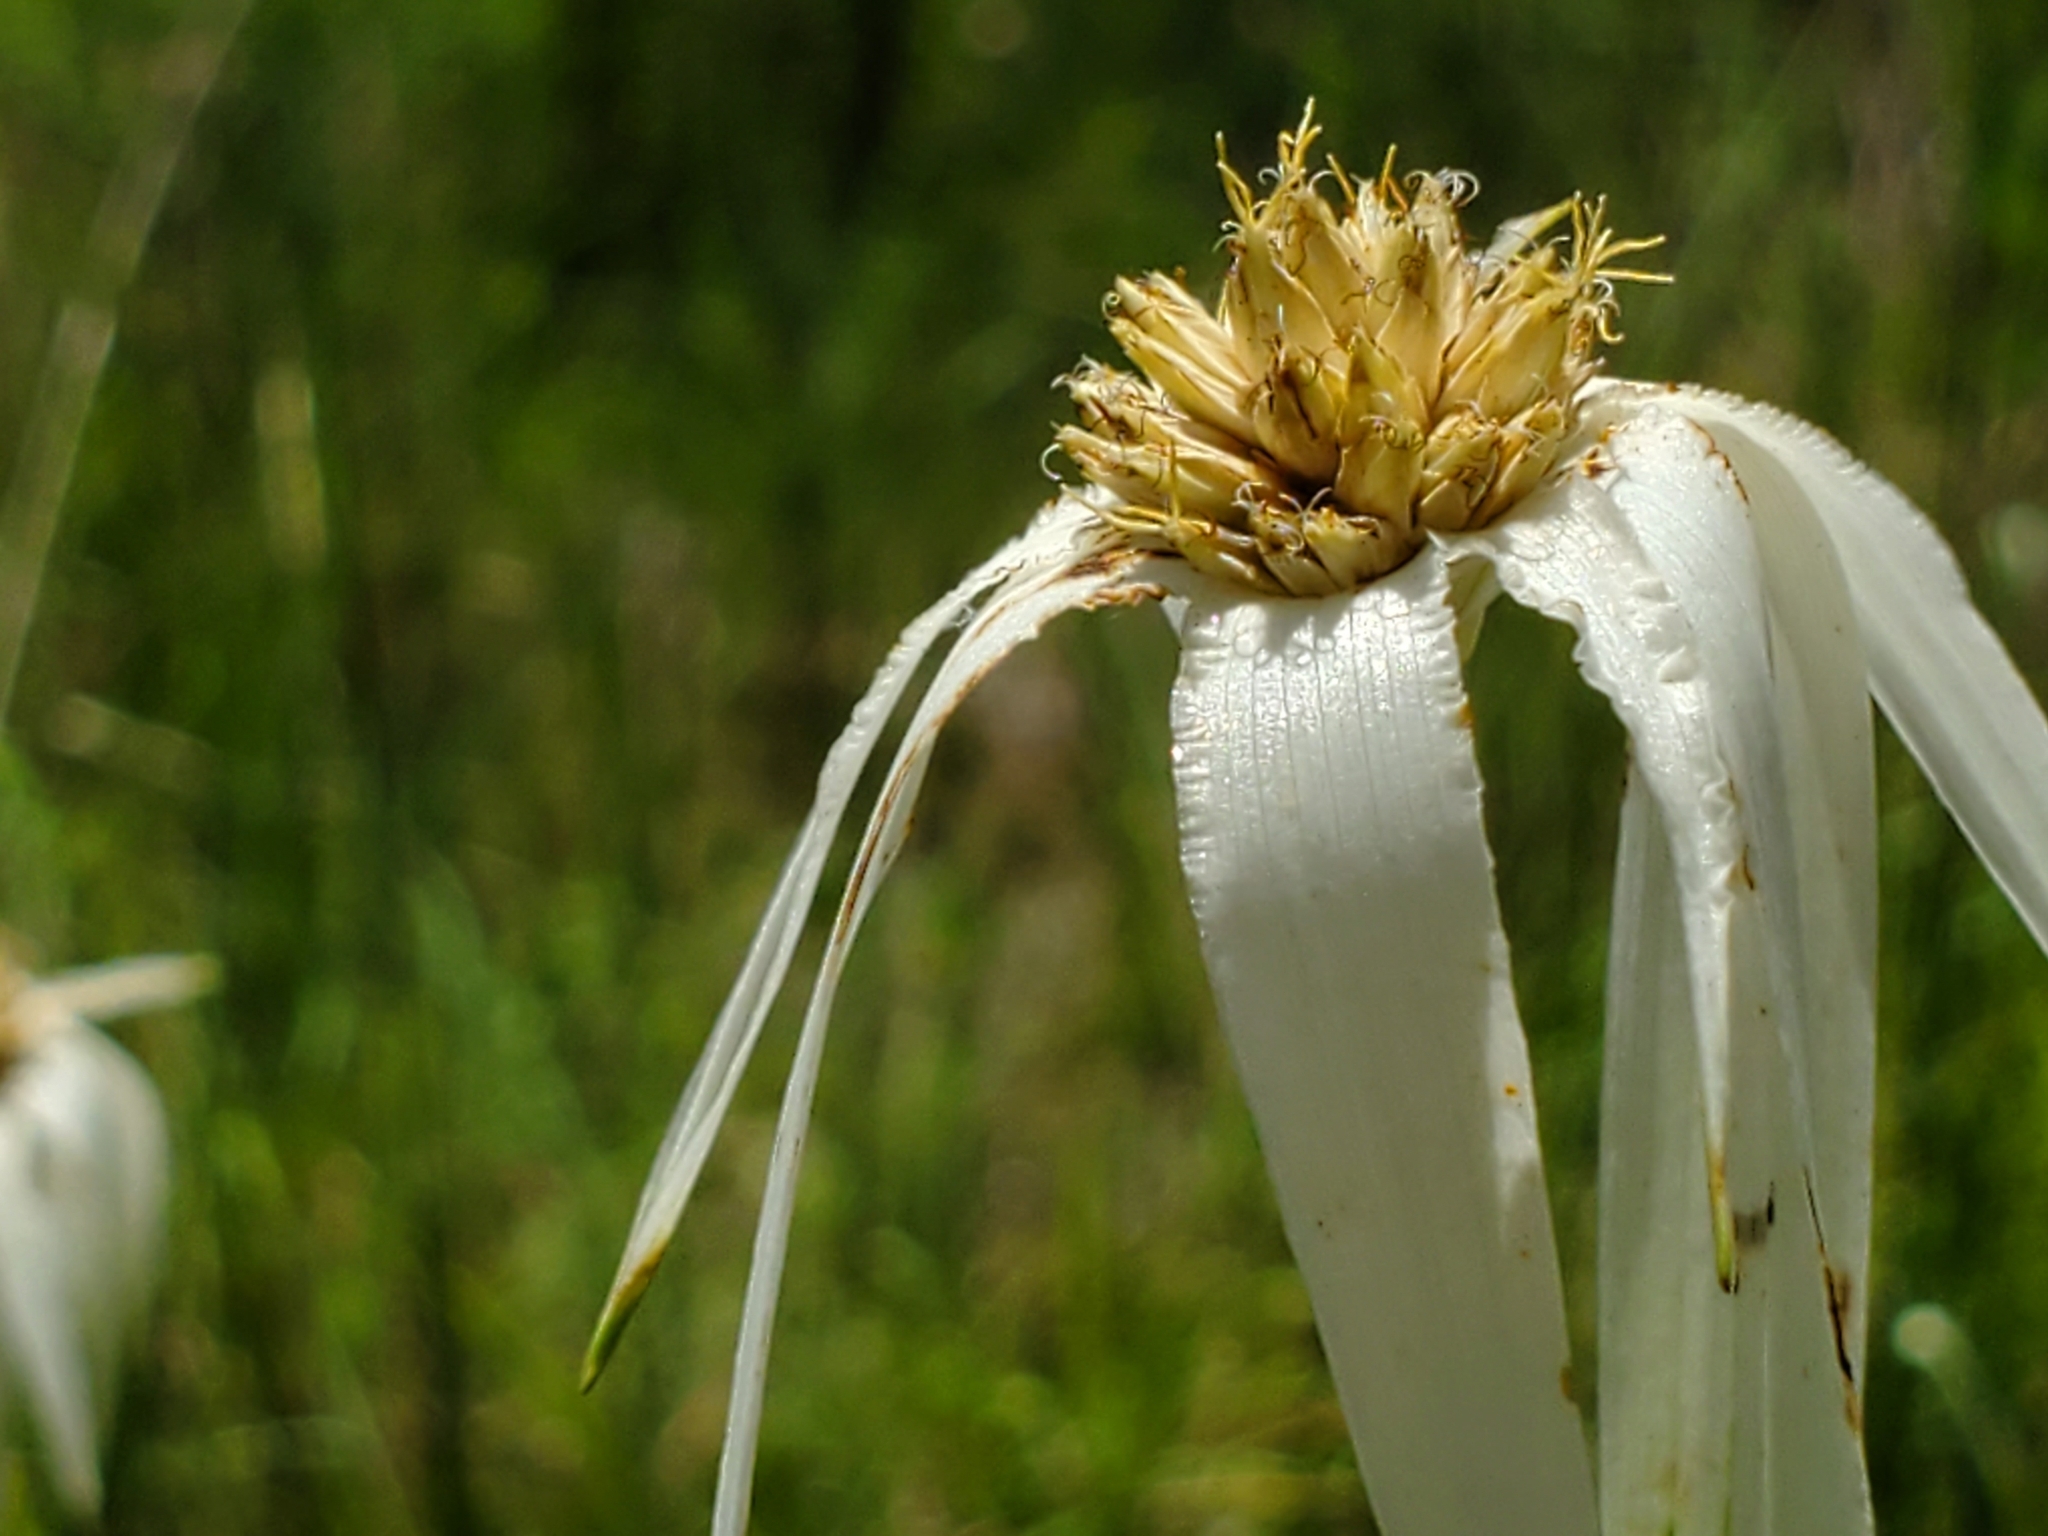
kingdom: Plantae
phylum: Tracheophyta
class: Liliopsida
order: Poales
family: Cyperaceae
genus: Rhynchospora
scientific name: Rhynchospora latifolia
